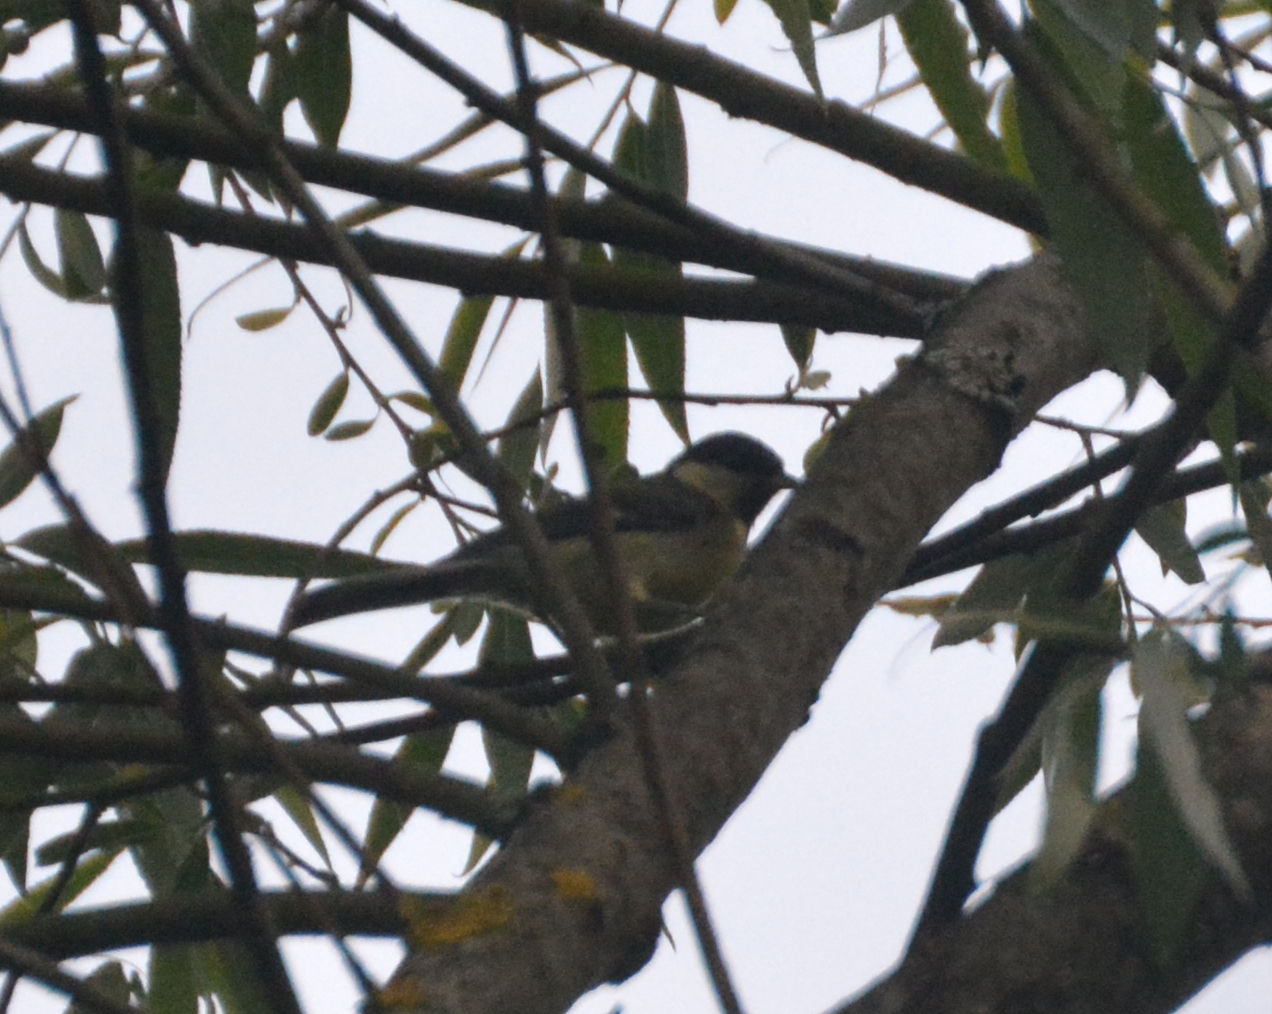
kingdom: Animalia
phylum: Chordata
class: Aves
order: Passeriformes
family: Paridae
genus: Parus
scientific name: Parus major
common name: Great tit
